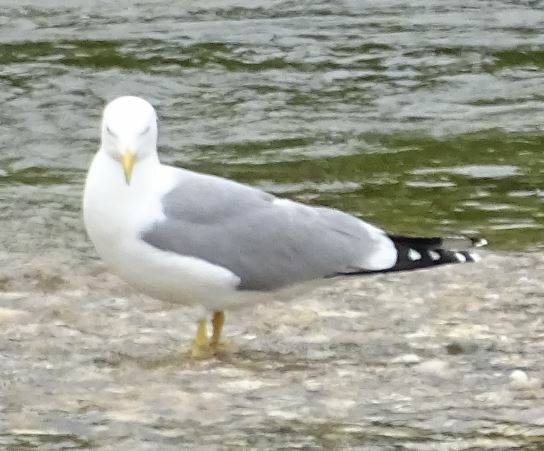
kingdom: Animalia
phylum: Chordata
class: Aves
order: Charadriiformes
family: Laridae
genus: Larus
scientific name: Larus michahellis
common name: Yellow-legged gull
